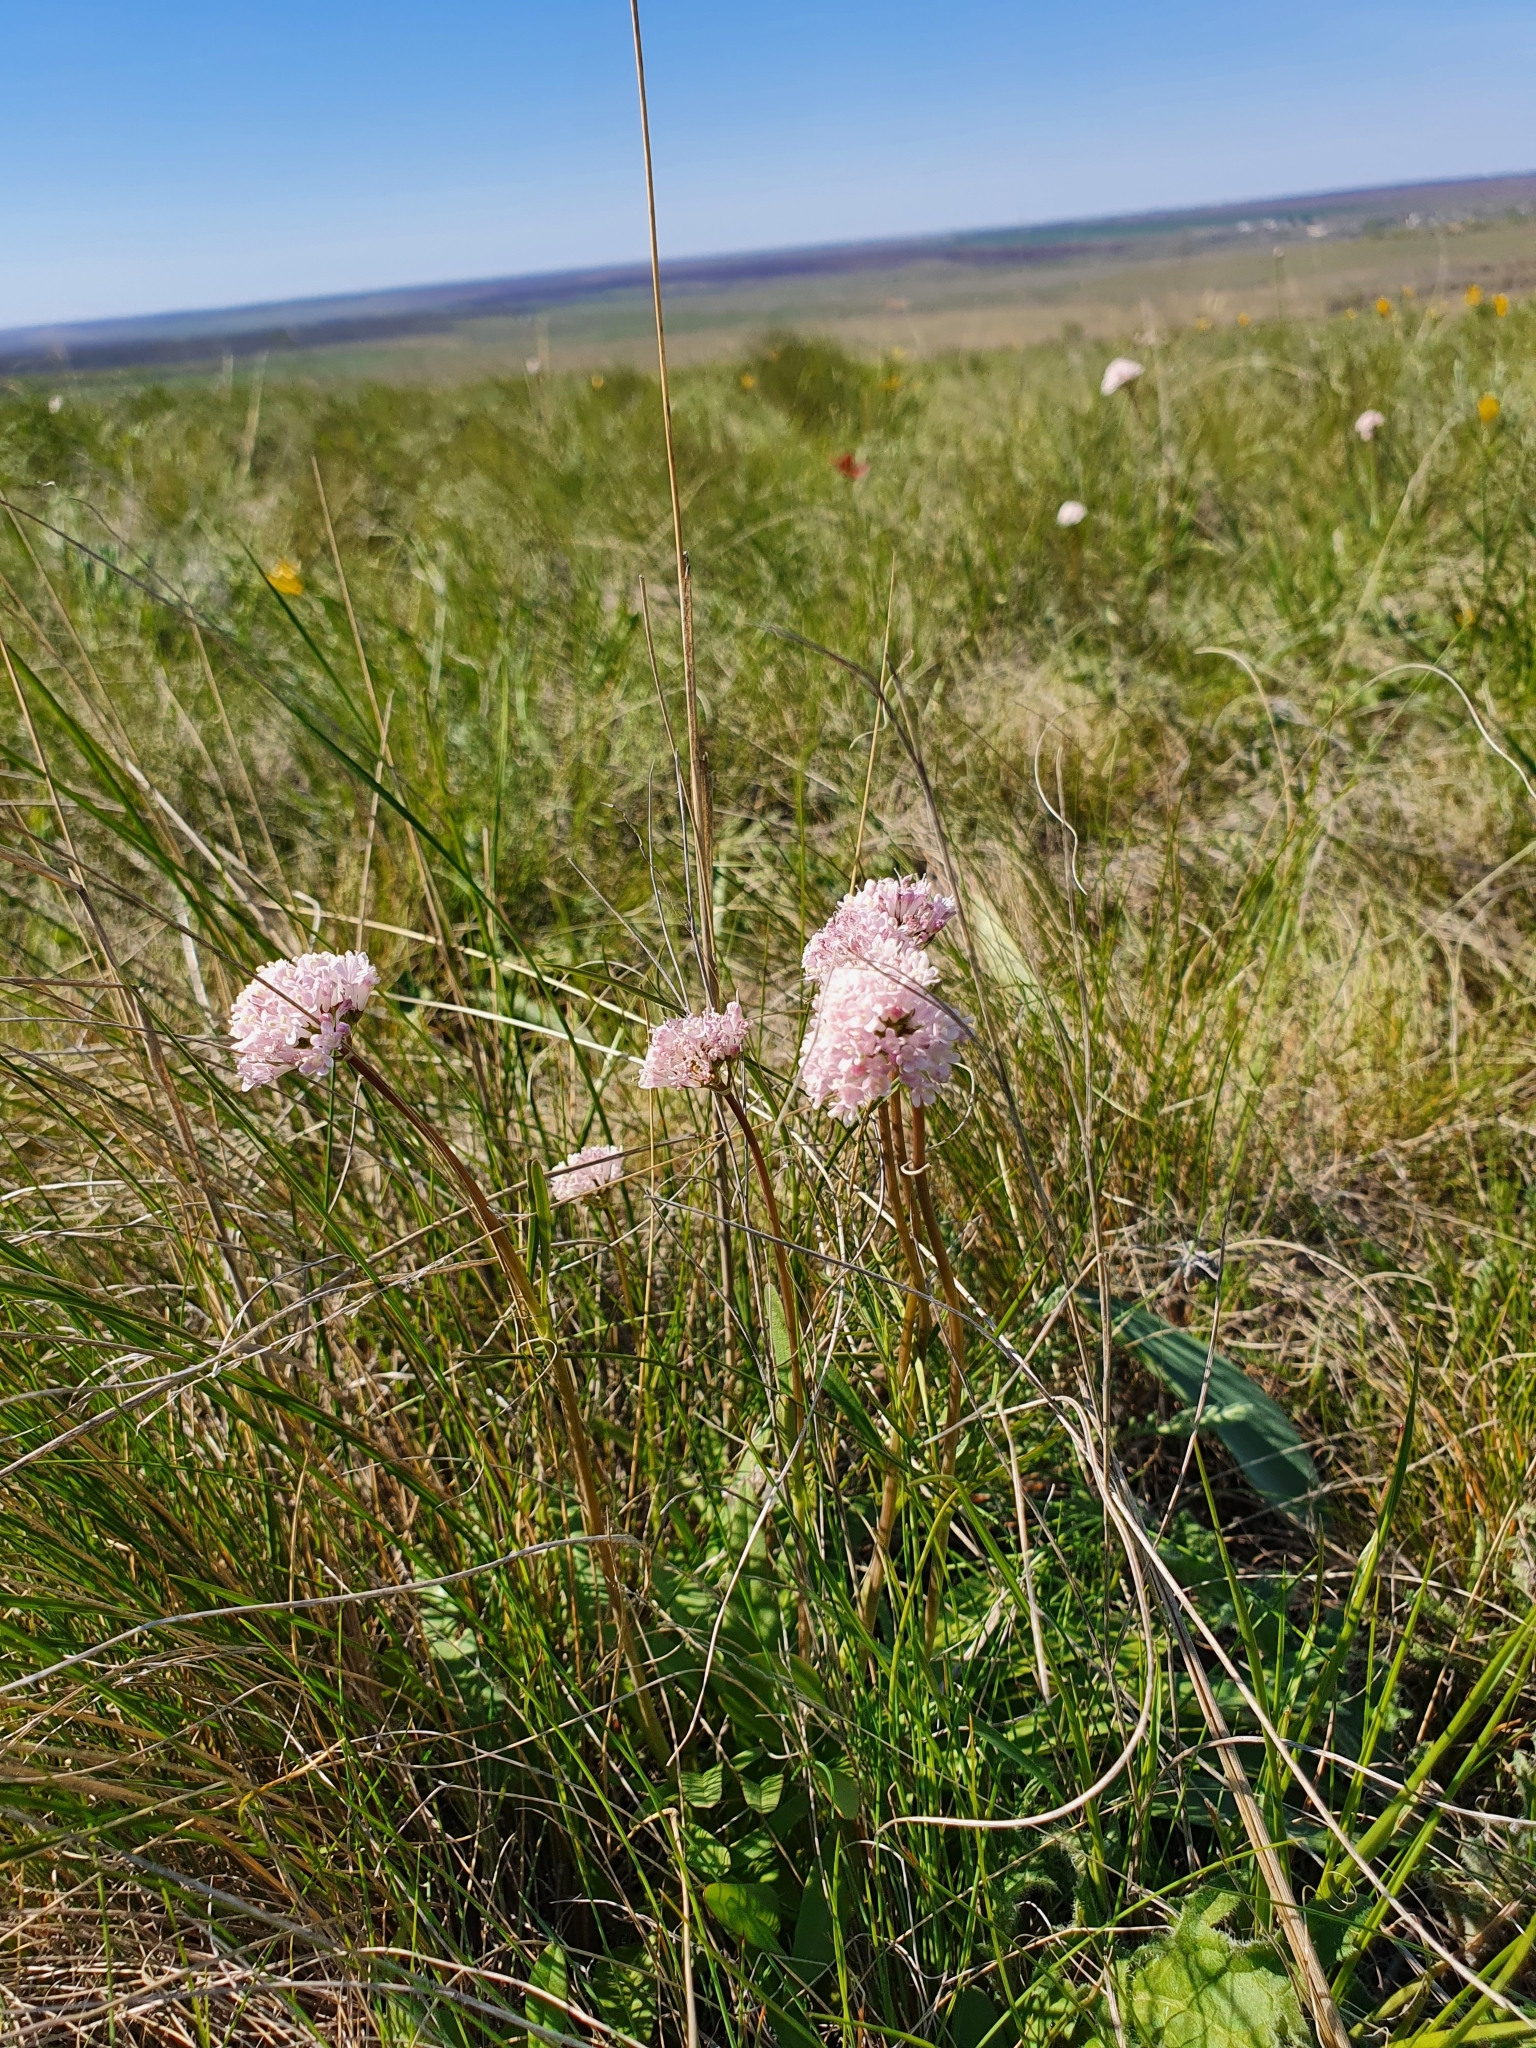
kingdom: Plantae
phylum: Tracheophyta
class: Magnoliopsida
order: Dipsacales
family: Caprifoliaceae
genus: Valeriana
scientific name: Valeriana tuberosa
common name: Tuberous valerian
